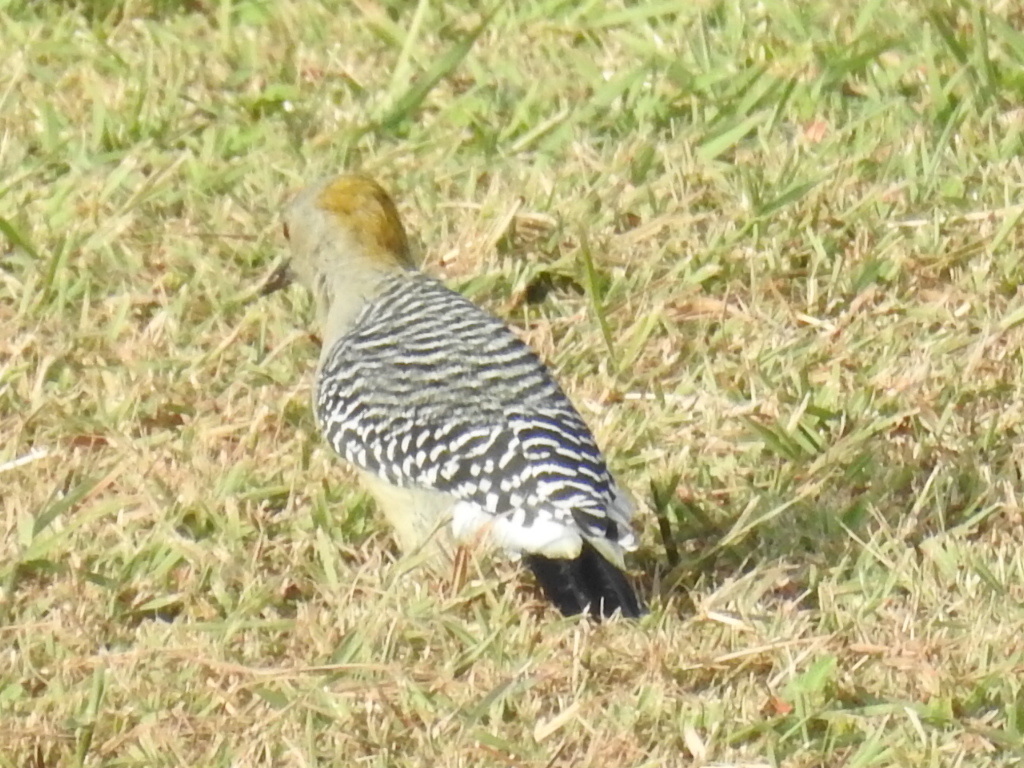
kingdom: Animalia
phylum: Chordata
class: Aves
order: Piciformes
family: Picidae
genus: Melanerpes
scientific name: Melanerpes aurifrons
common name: Golden-fronted woodpecker
